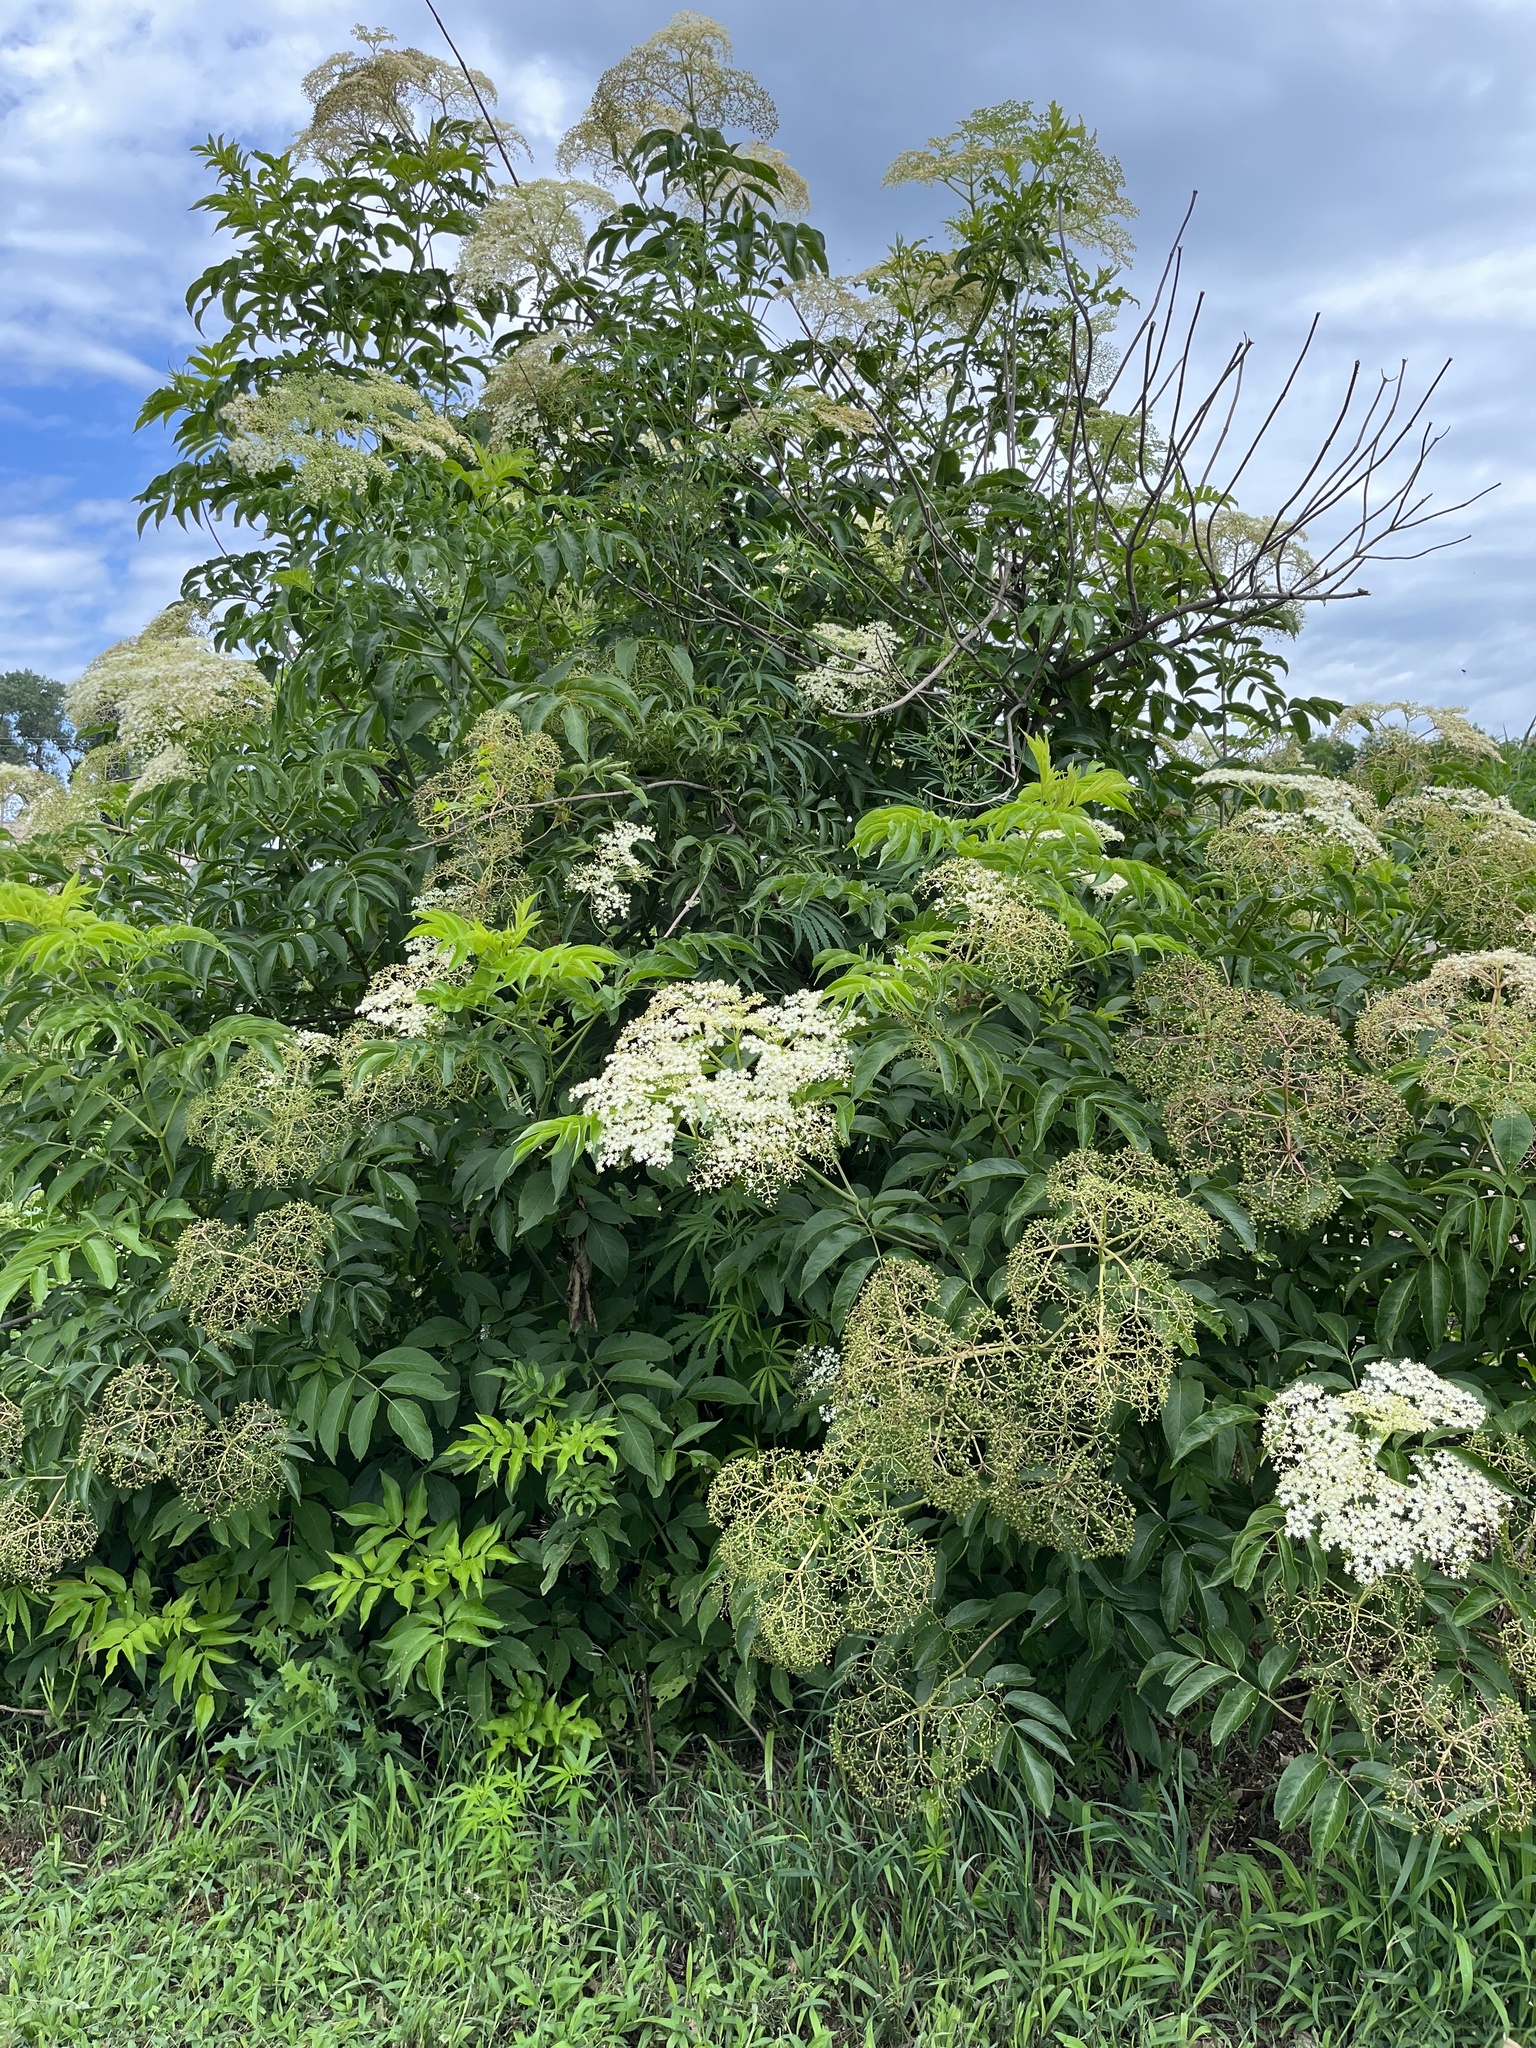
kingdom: Plantae
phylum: Tracheophyta
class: Magnoliopsida
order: Dipsacales
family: Viburnaceae
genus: Sambucus
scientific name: Sambucus canadensis
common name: American elder
